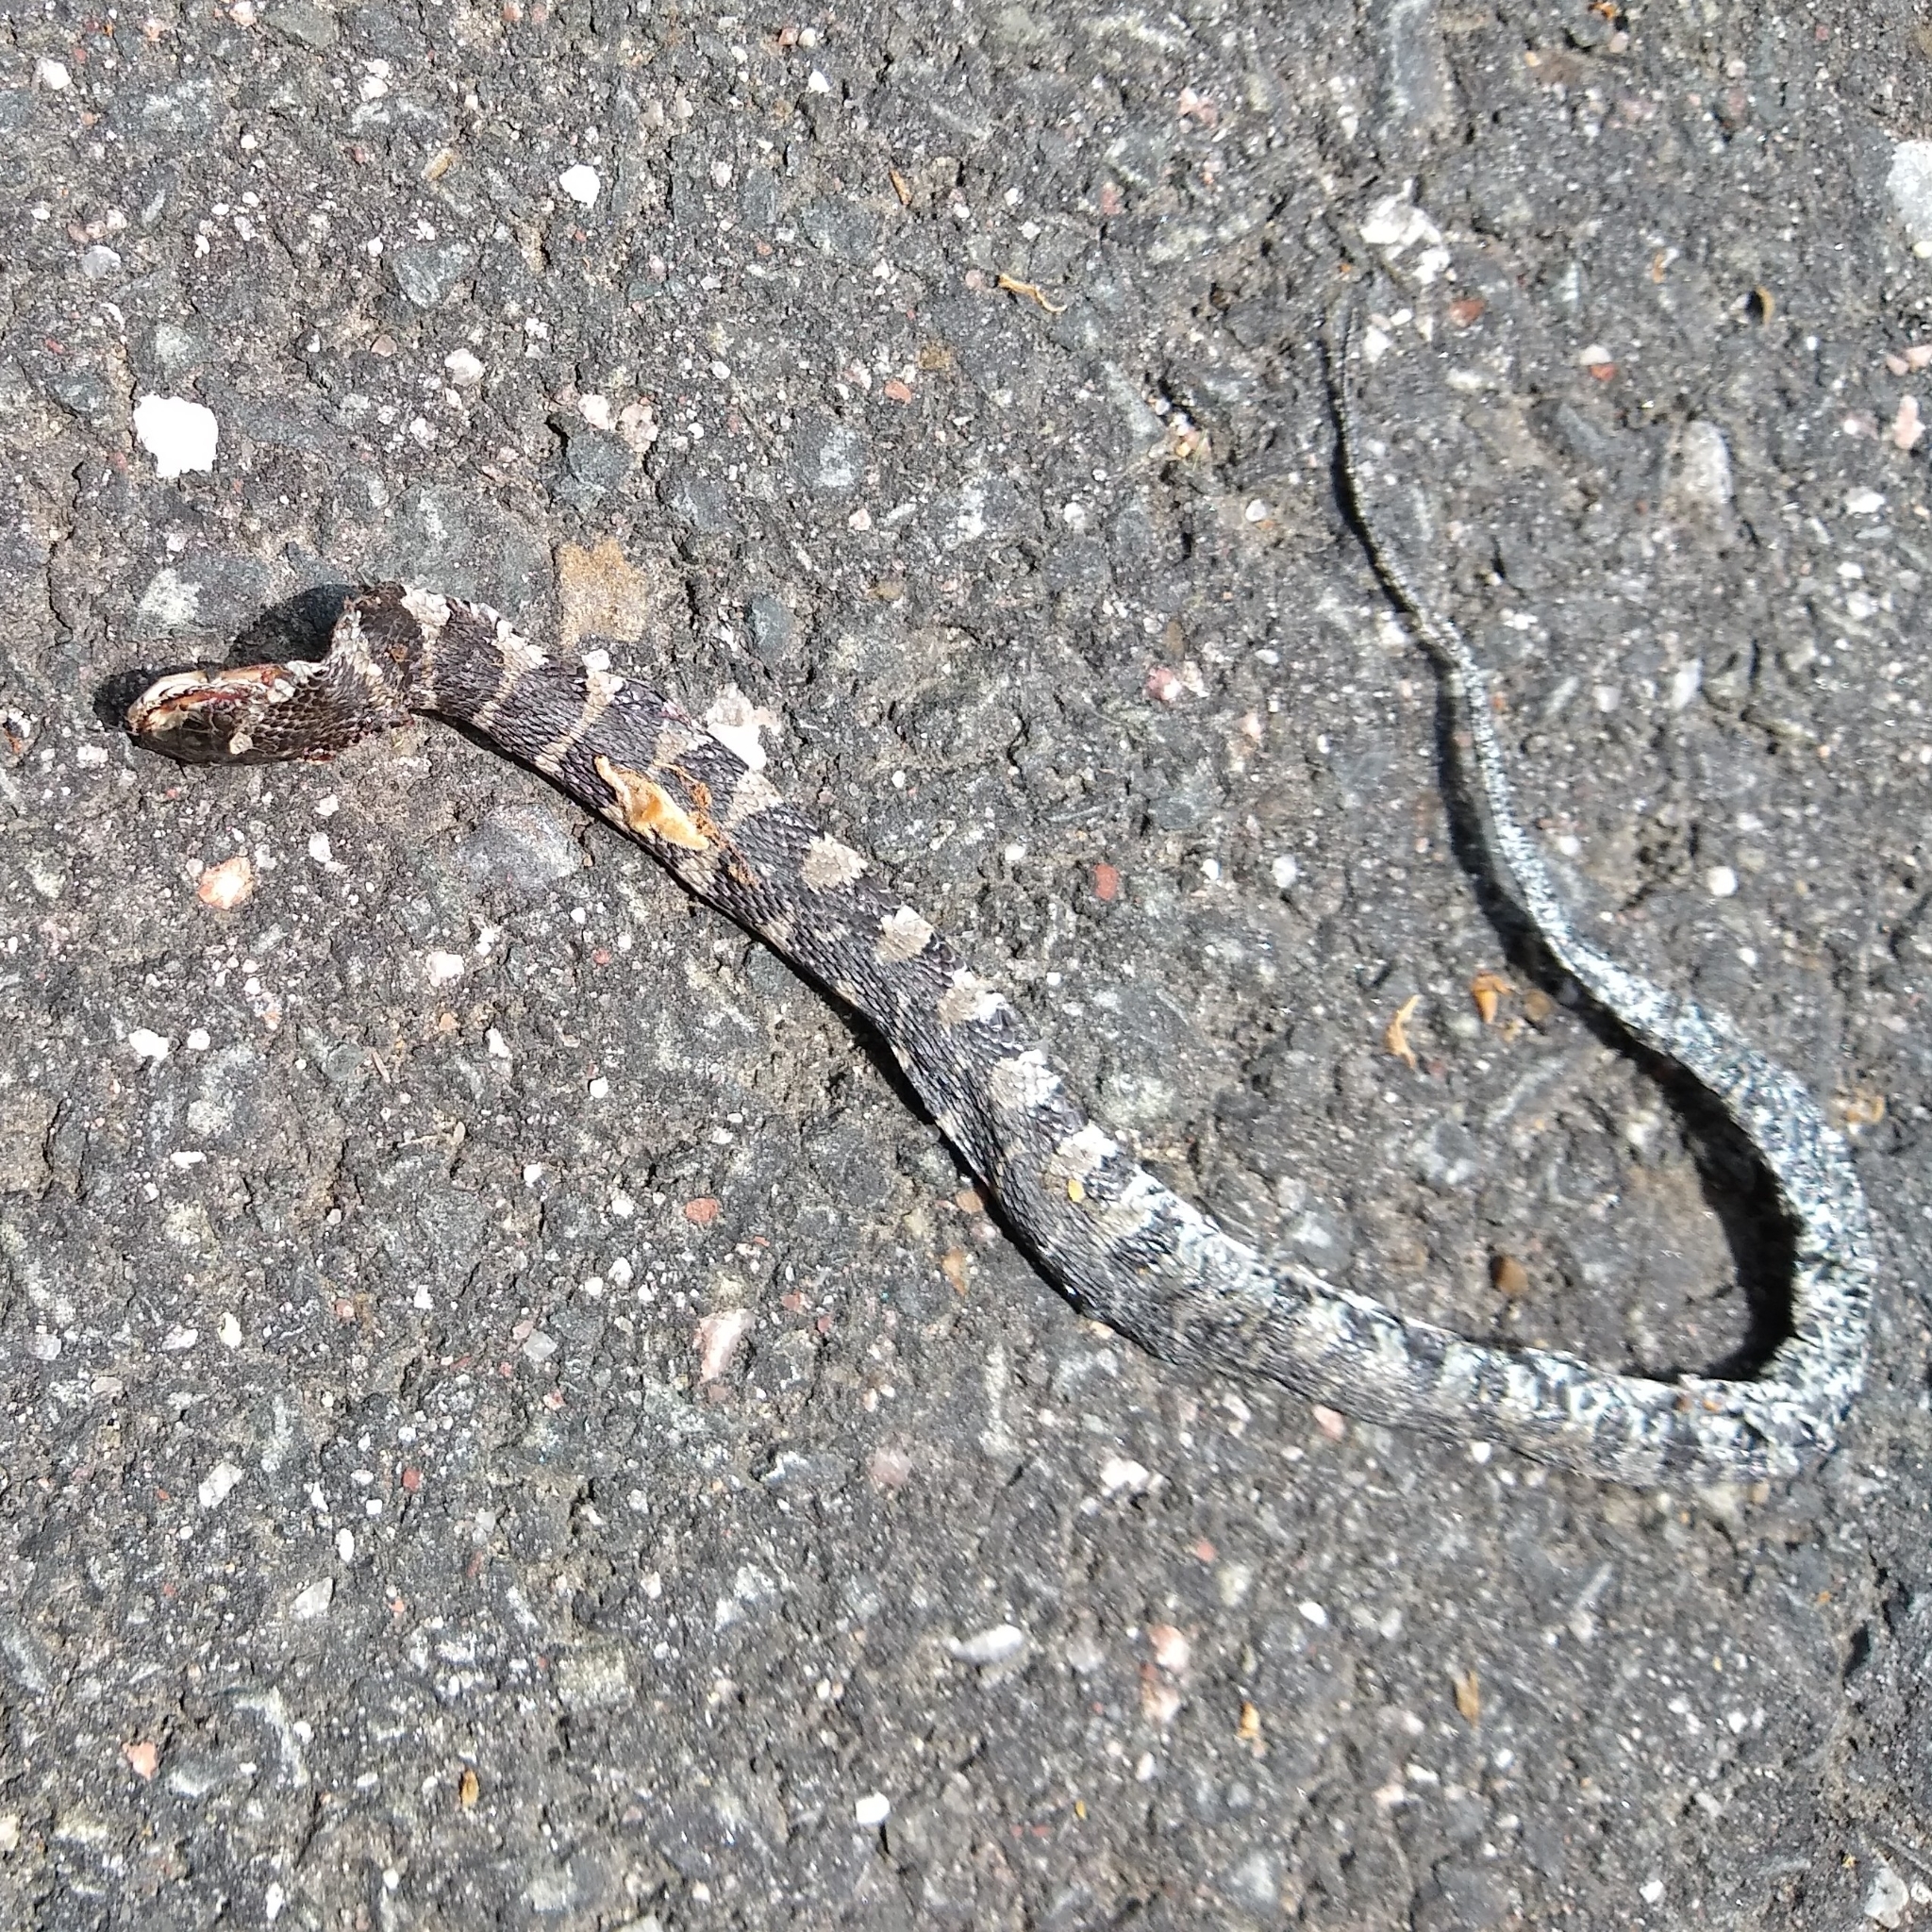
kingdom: Animalia
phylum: Chordata
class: Squamata
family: Colubridae
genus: Nerodia
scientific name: Nerodia sipedon
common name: Northern water snake
